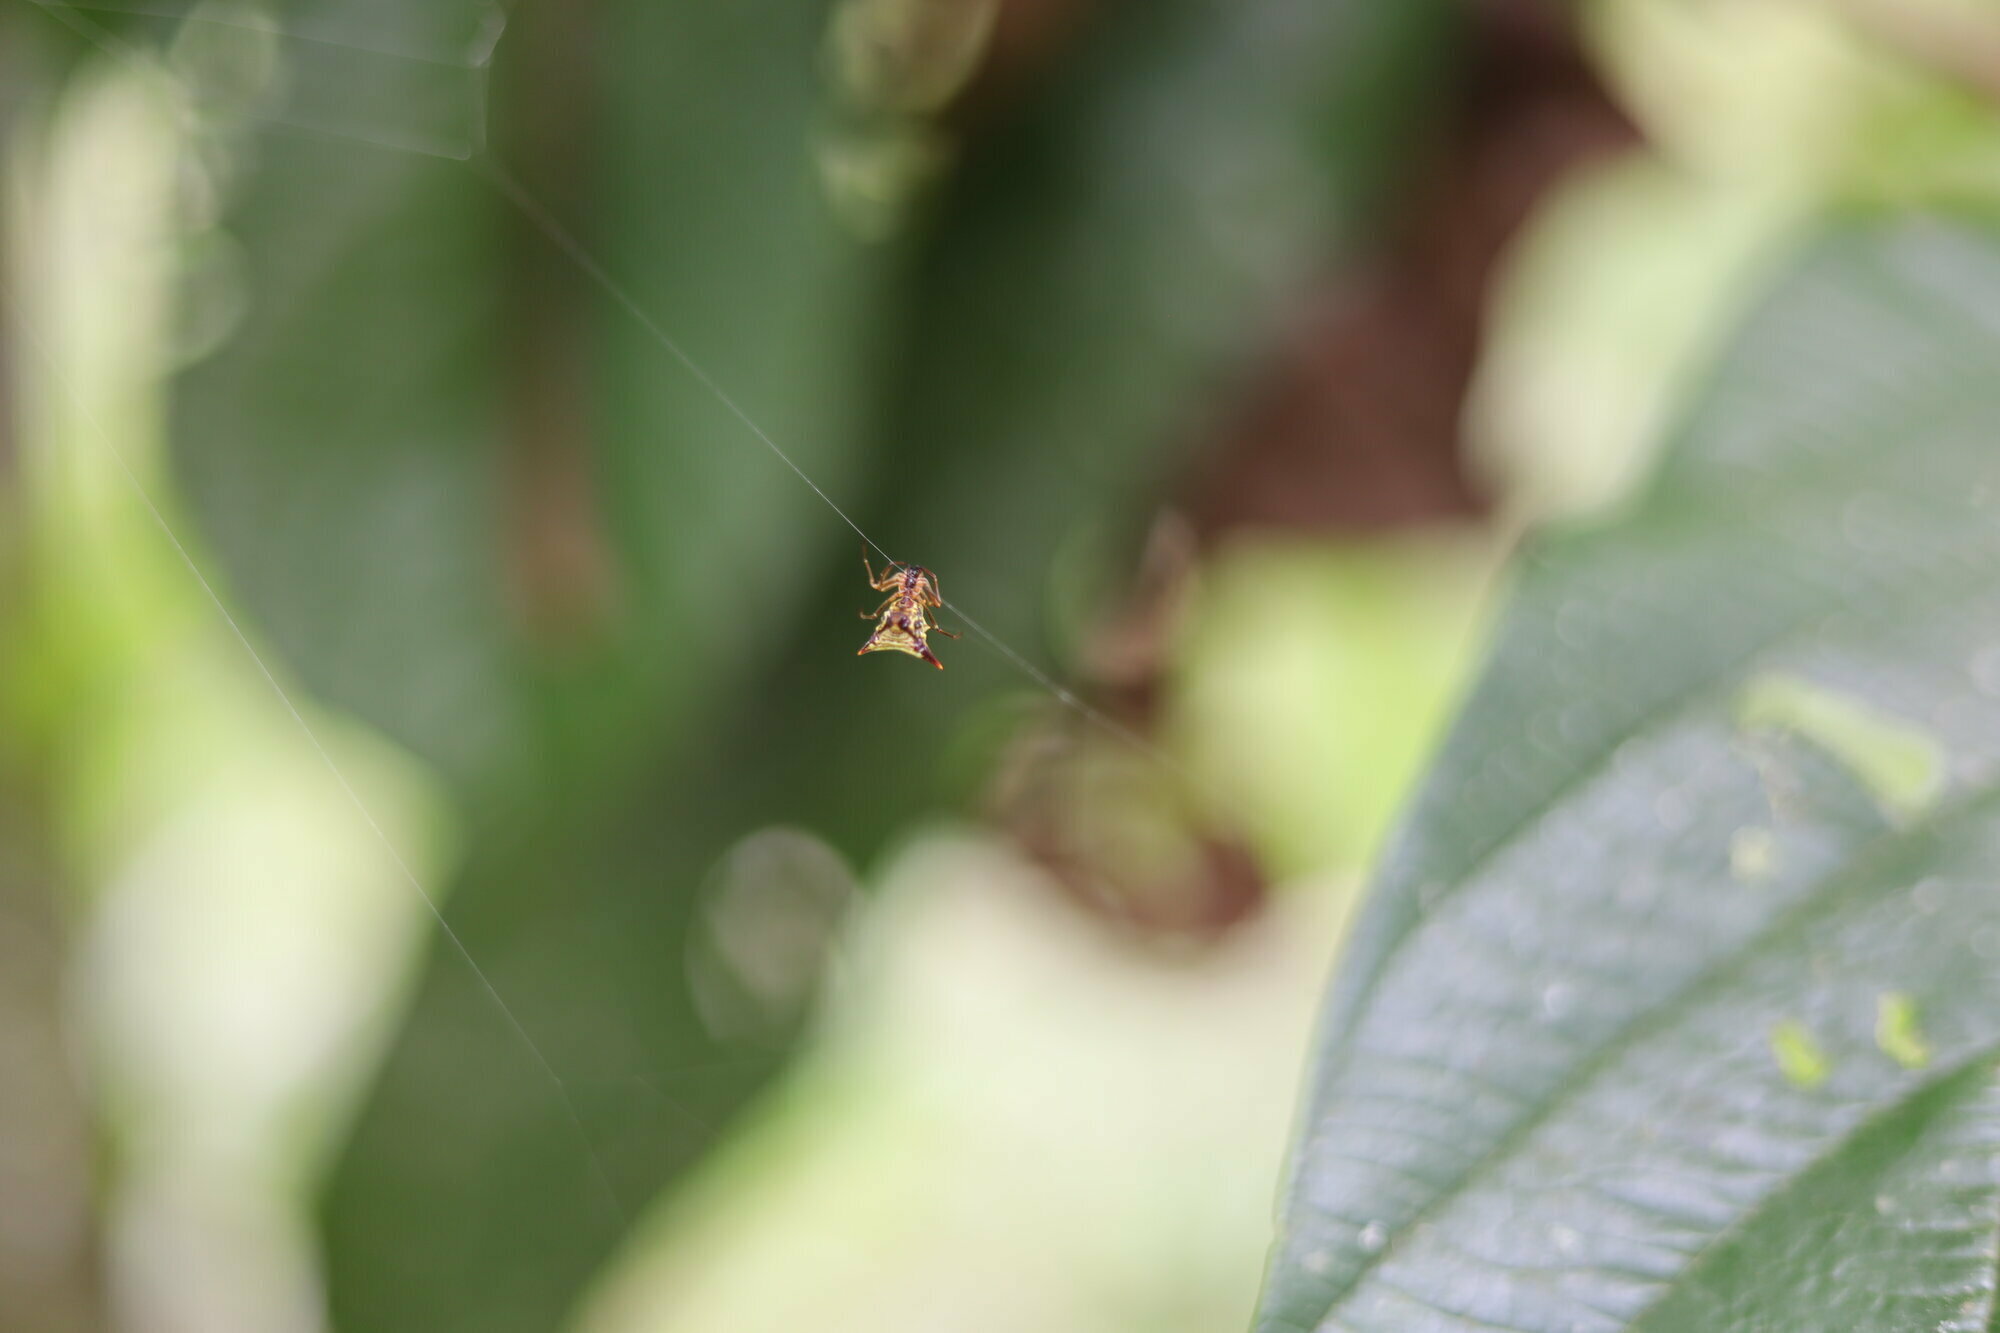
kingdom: Animalia
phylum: Arthropoda
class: Arachnida
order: Araneae
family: Araneidae
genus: Micrathena
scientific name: Micrathena acuta
